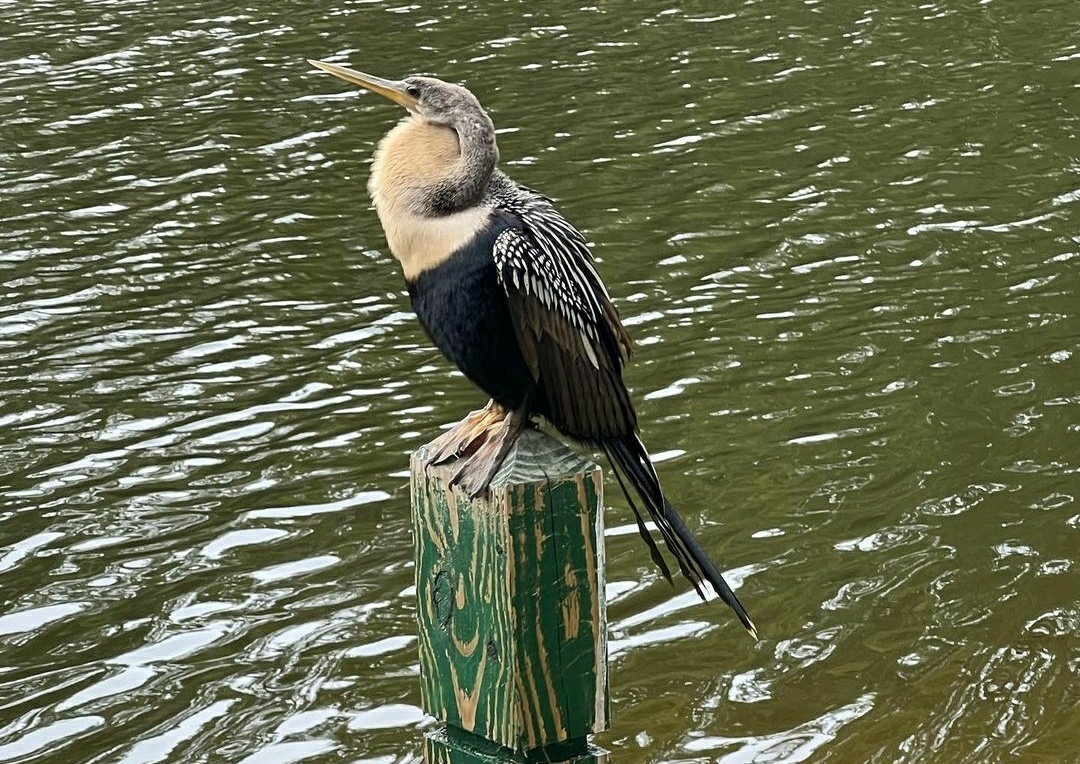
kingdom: Animalia
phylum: Chordata
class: Aves
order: Suliformes
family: Anhingidae
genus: Anhinga
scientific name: Anhinga anhinga
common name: Anhinga
